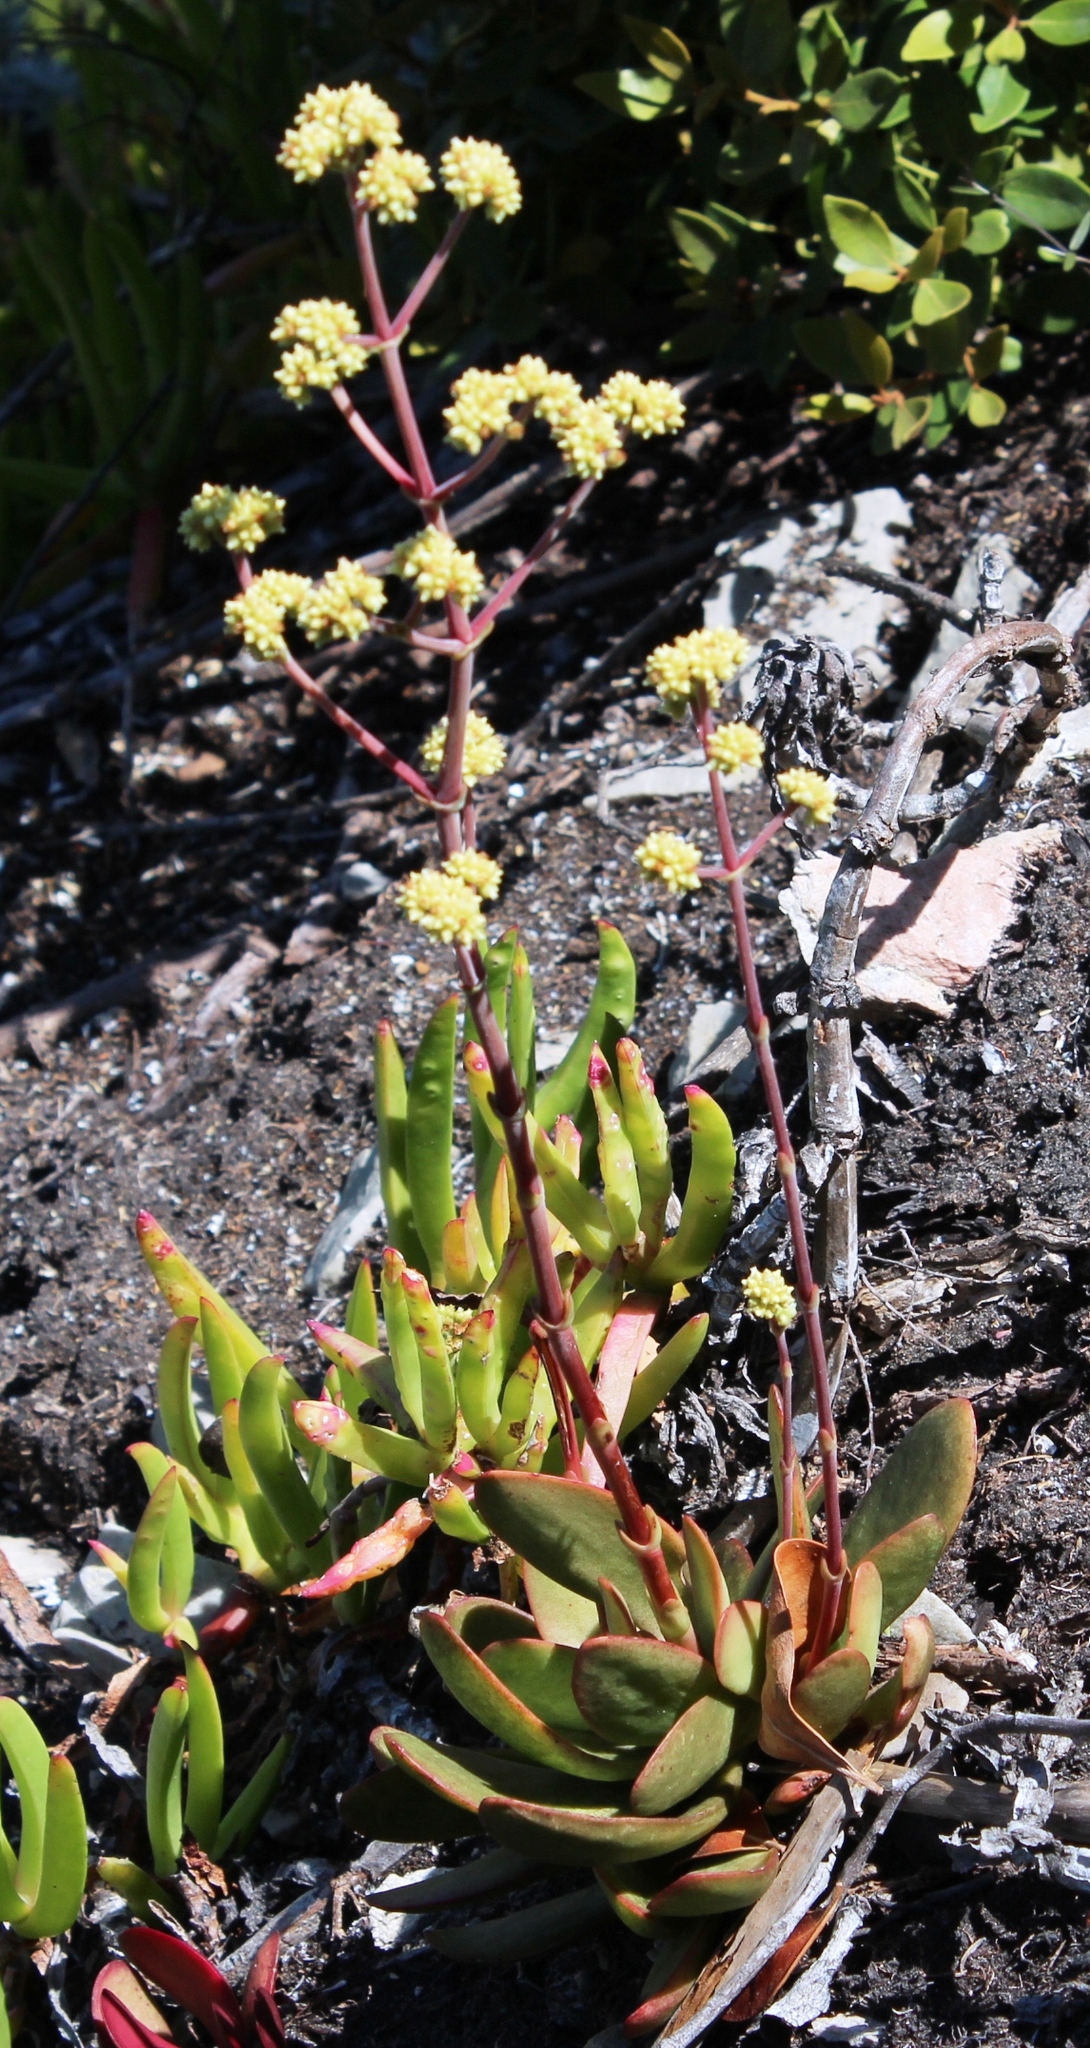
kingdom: Plantae
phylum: Tracheophyta
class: Magnoliopsida
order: Saxifragales
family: Crassulaceae
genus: Crassula
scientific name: Crassula nudicaulis
